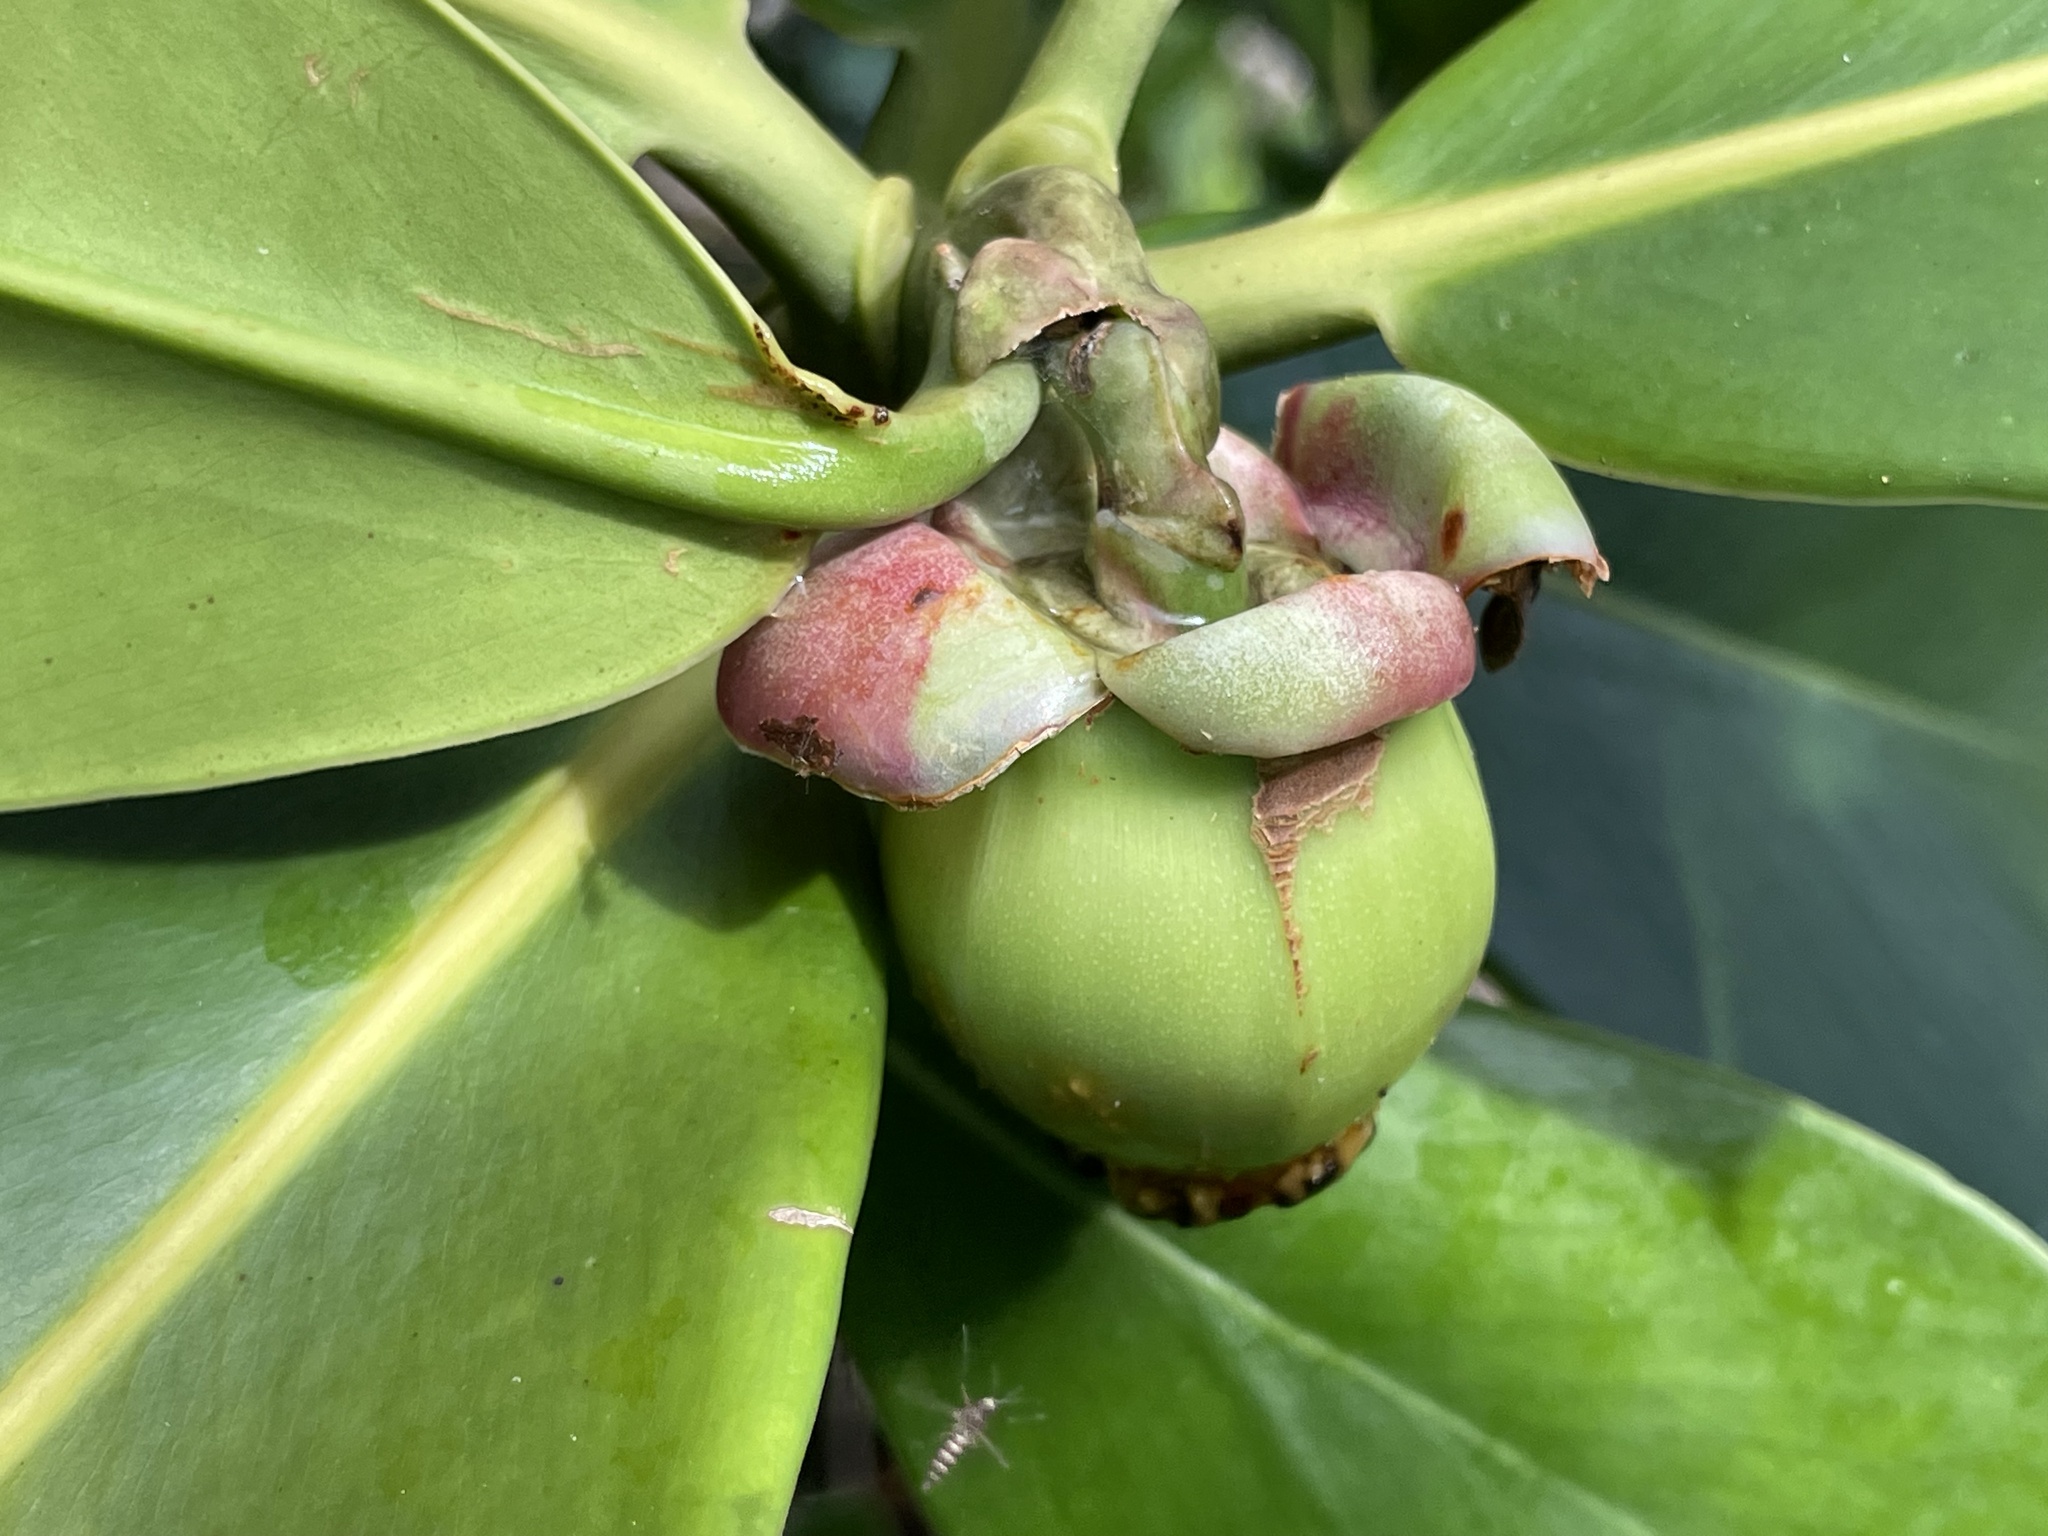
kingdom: Plantae
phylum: Tracheophyta
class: Magnoliopsida
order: Malpighiales
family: Clusiaceae
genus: Clusia
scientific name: Clusia rosea
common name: Scotch attorney
